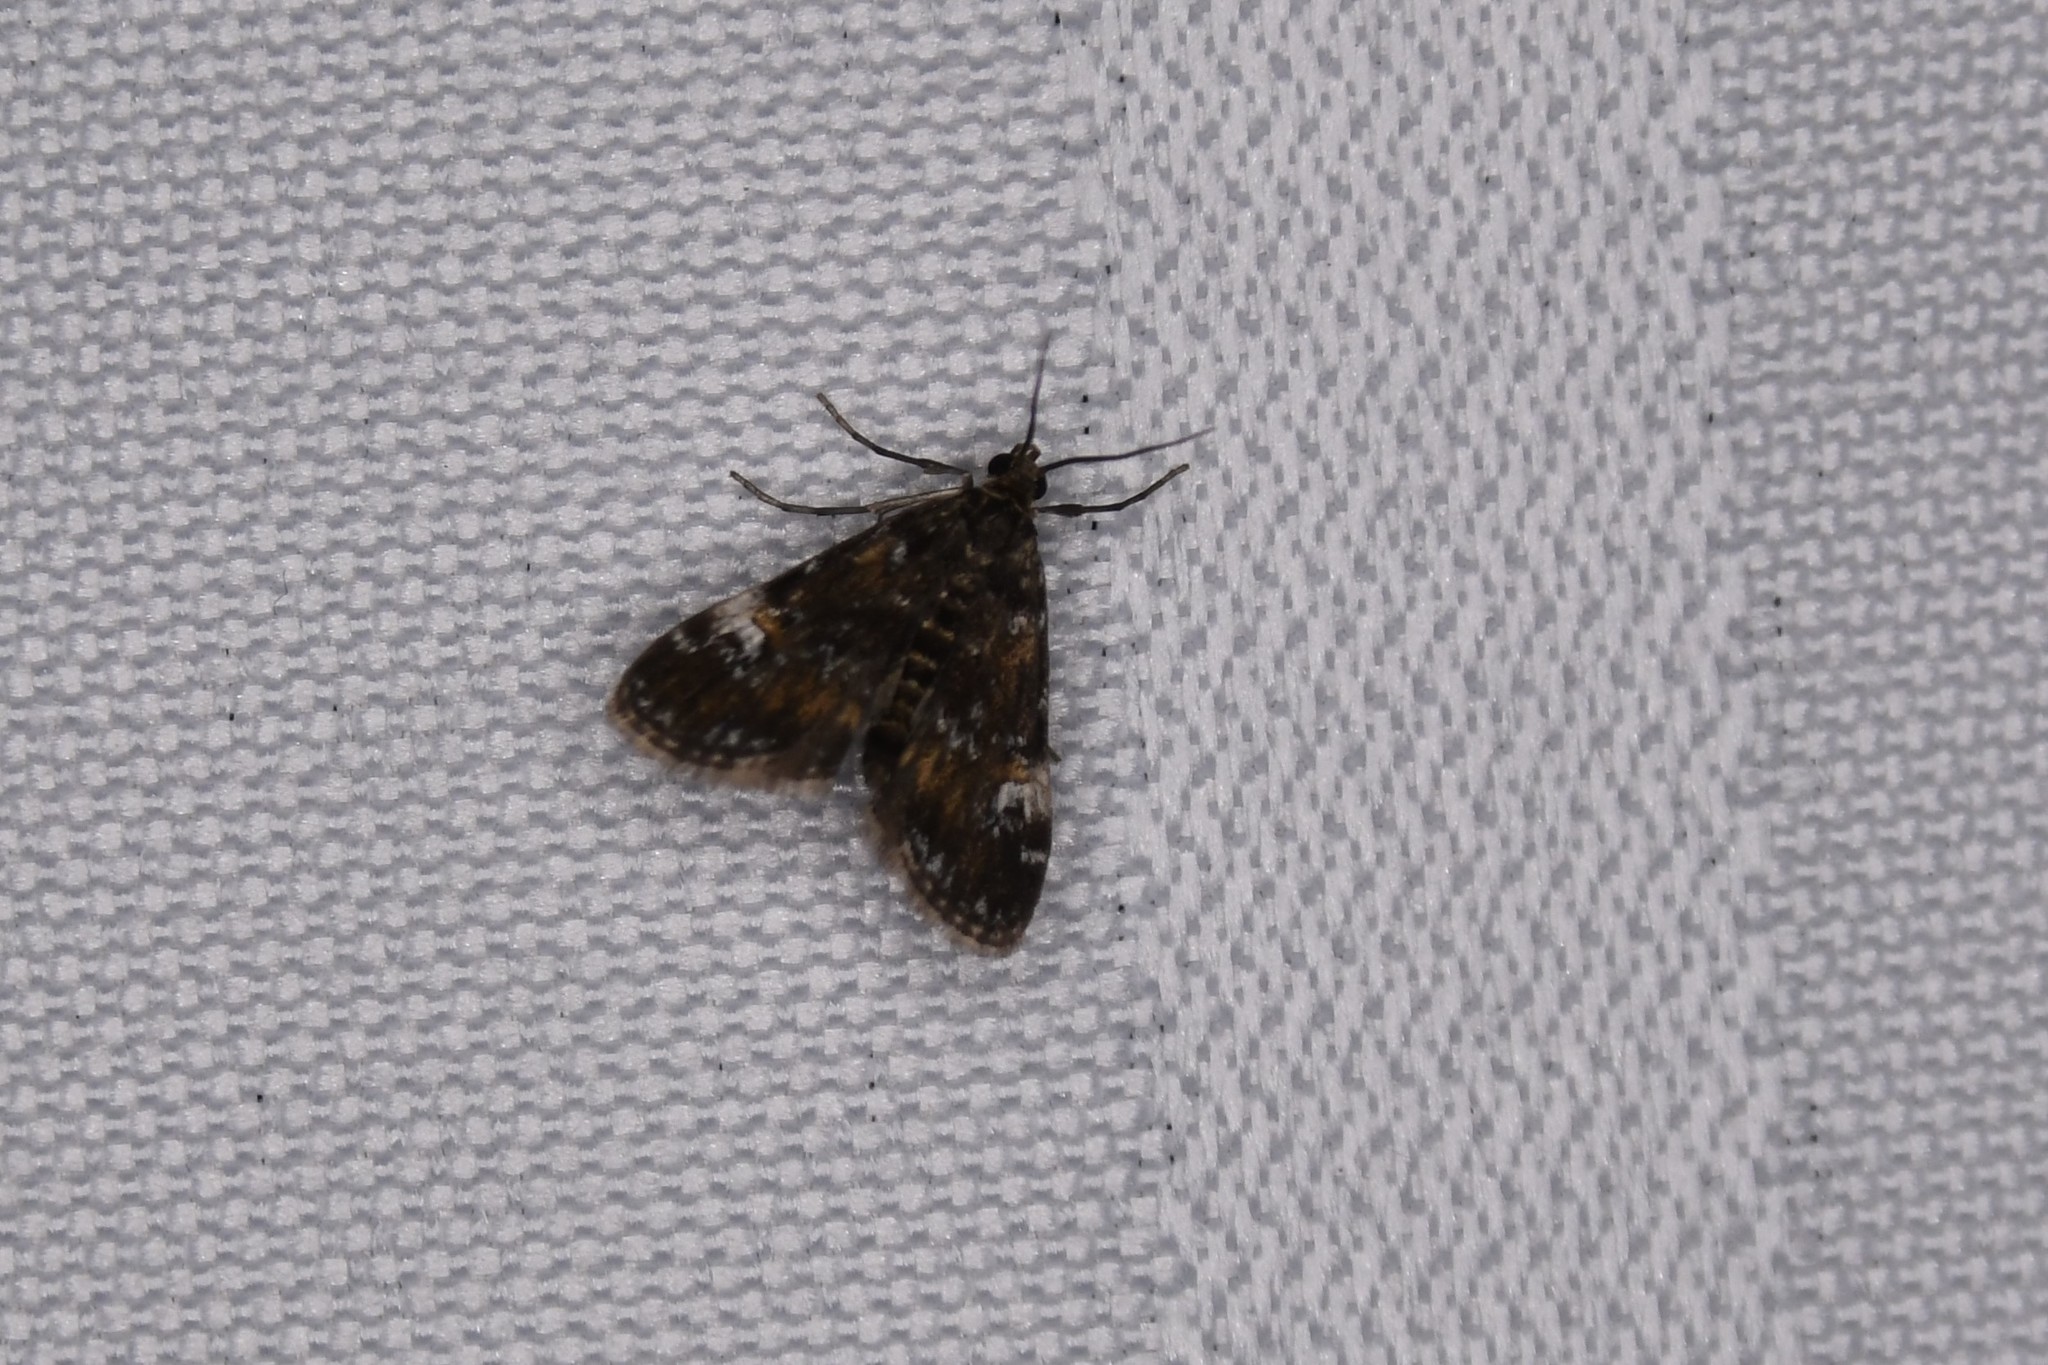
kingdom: Animalia
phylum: Arthropoda
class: Insecta
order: Lepidoptera
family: Crambidae
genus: Elophila
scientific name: Elophila obliteralis
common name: Waterlily leafcutter moth
